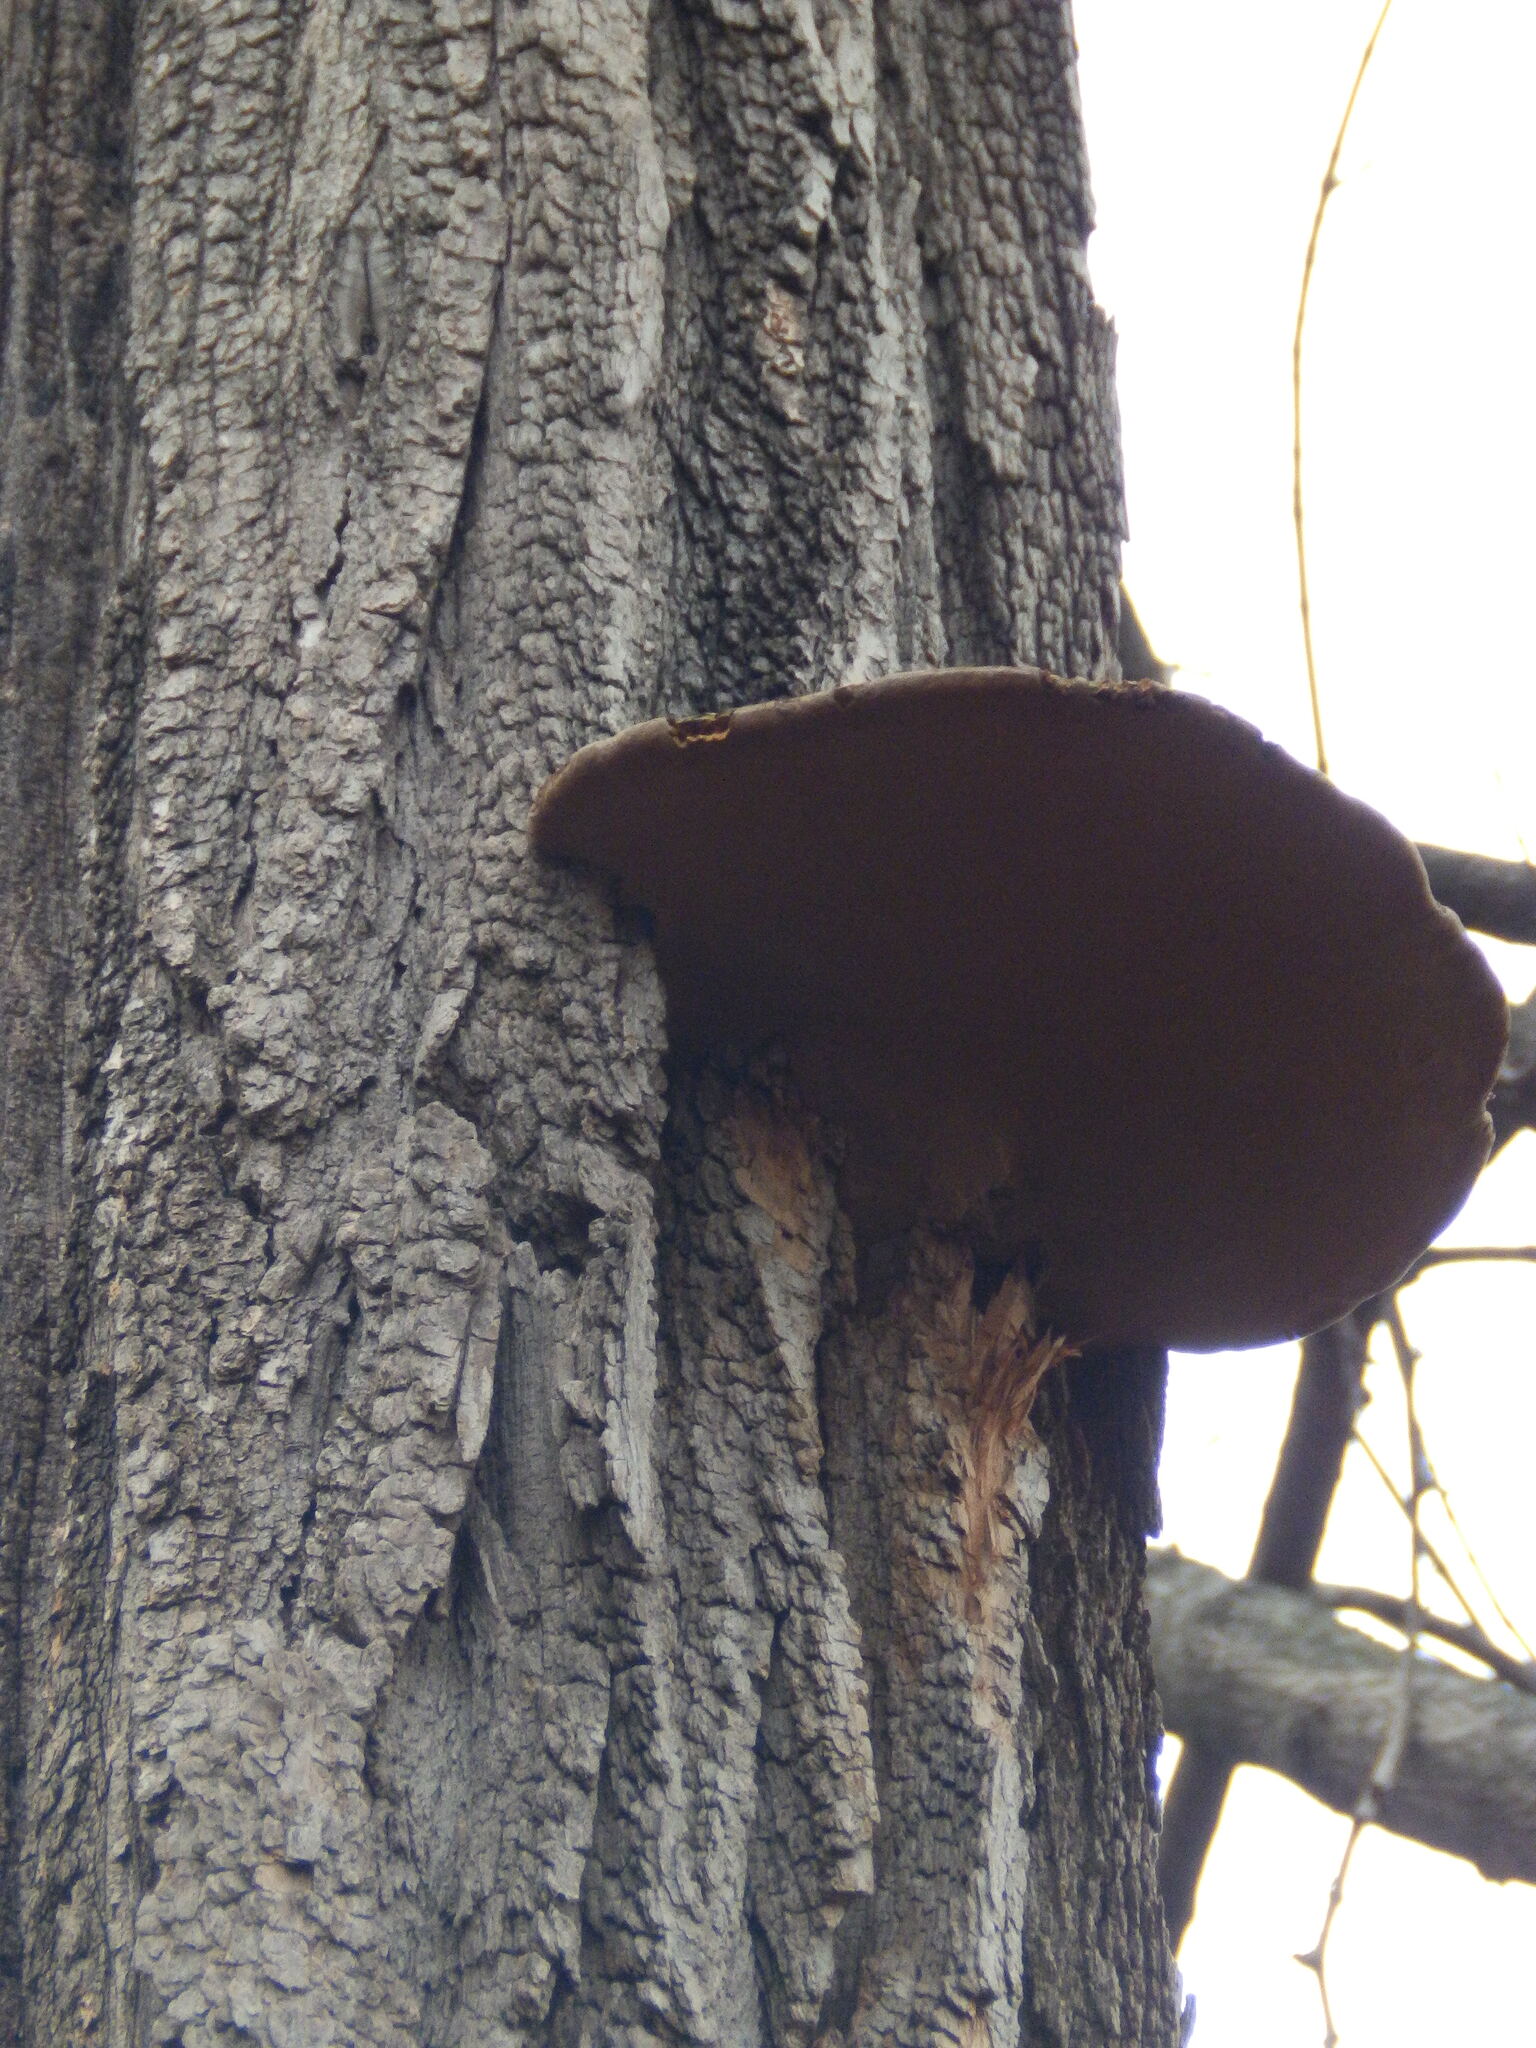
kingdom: Fungi
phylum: Basidiomycota
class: Agaricomycetes
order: Hymenochaetales
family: Hymenochaetaceae
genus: Phellinus
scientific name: Phellinus robiniae
